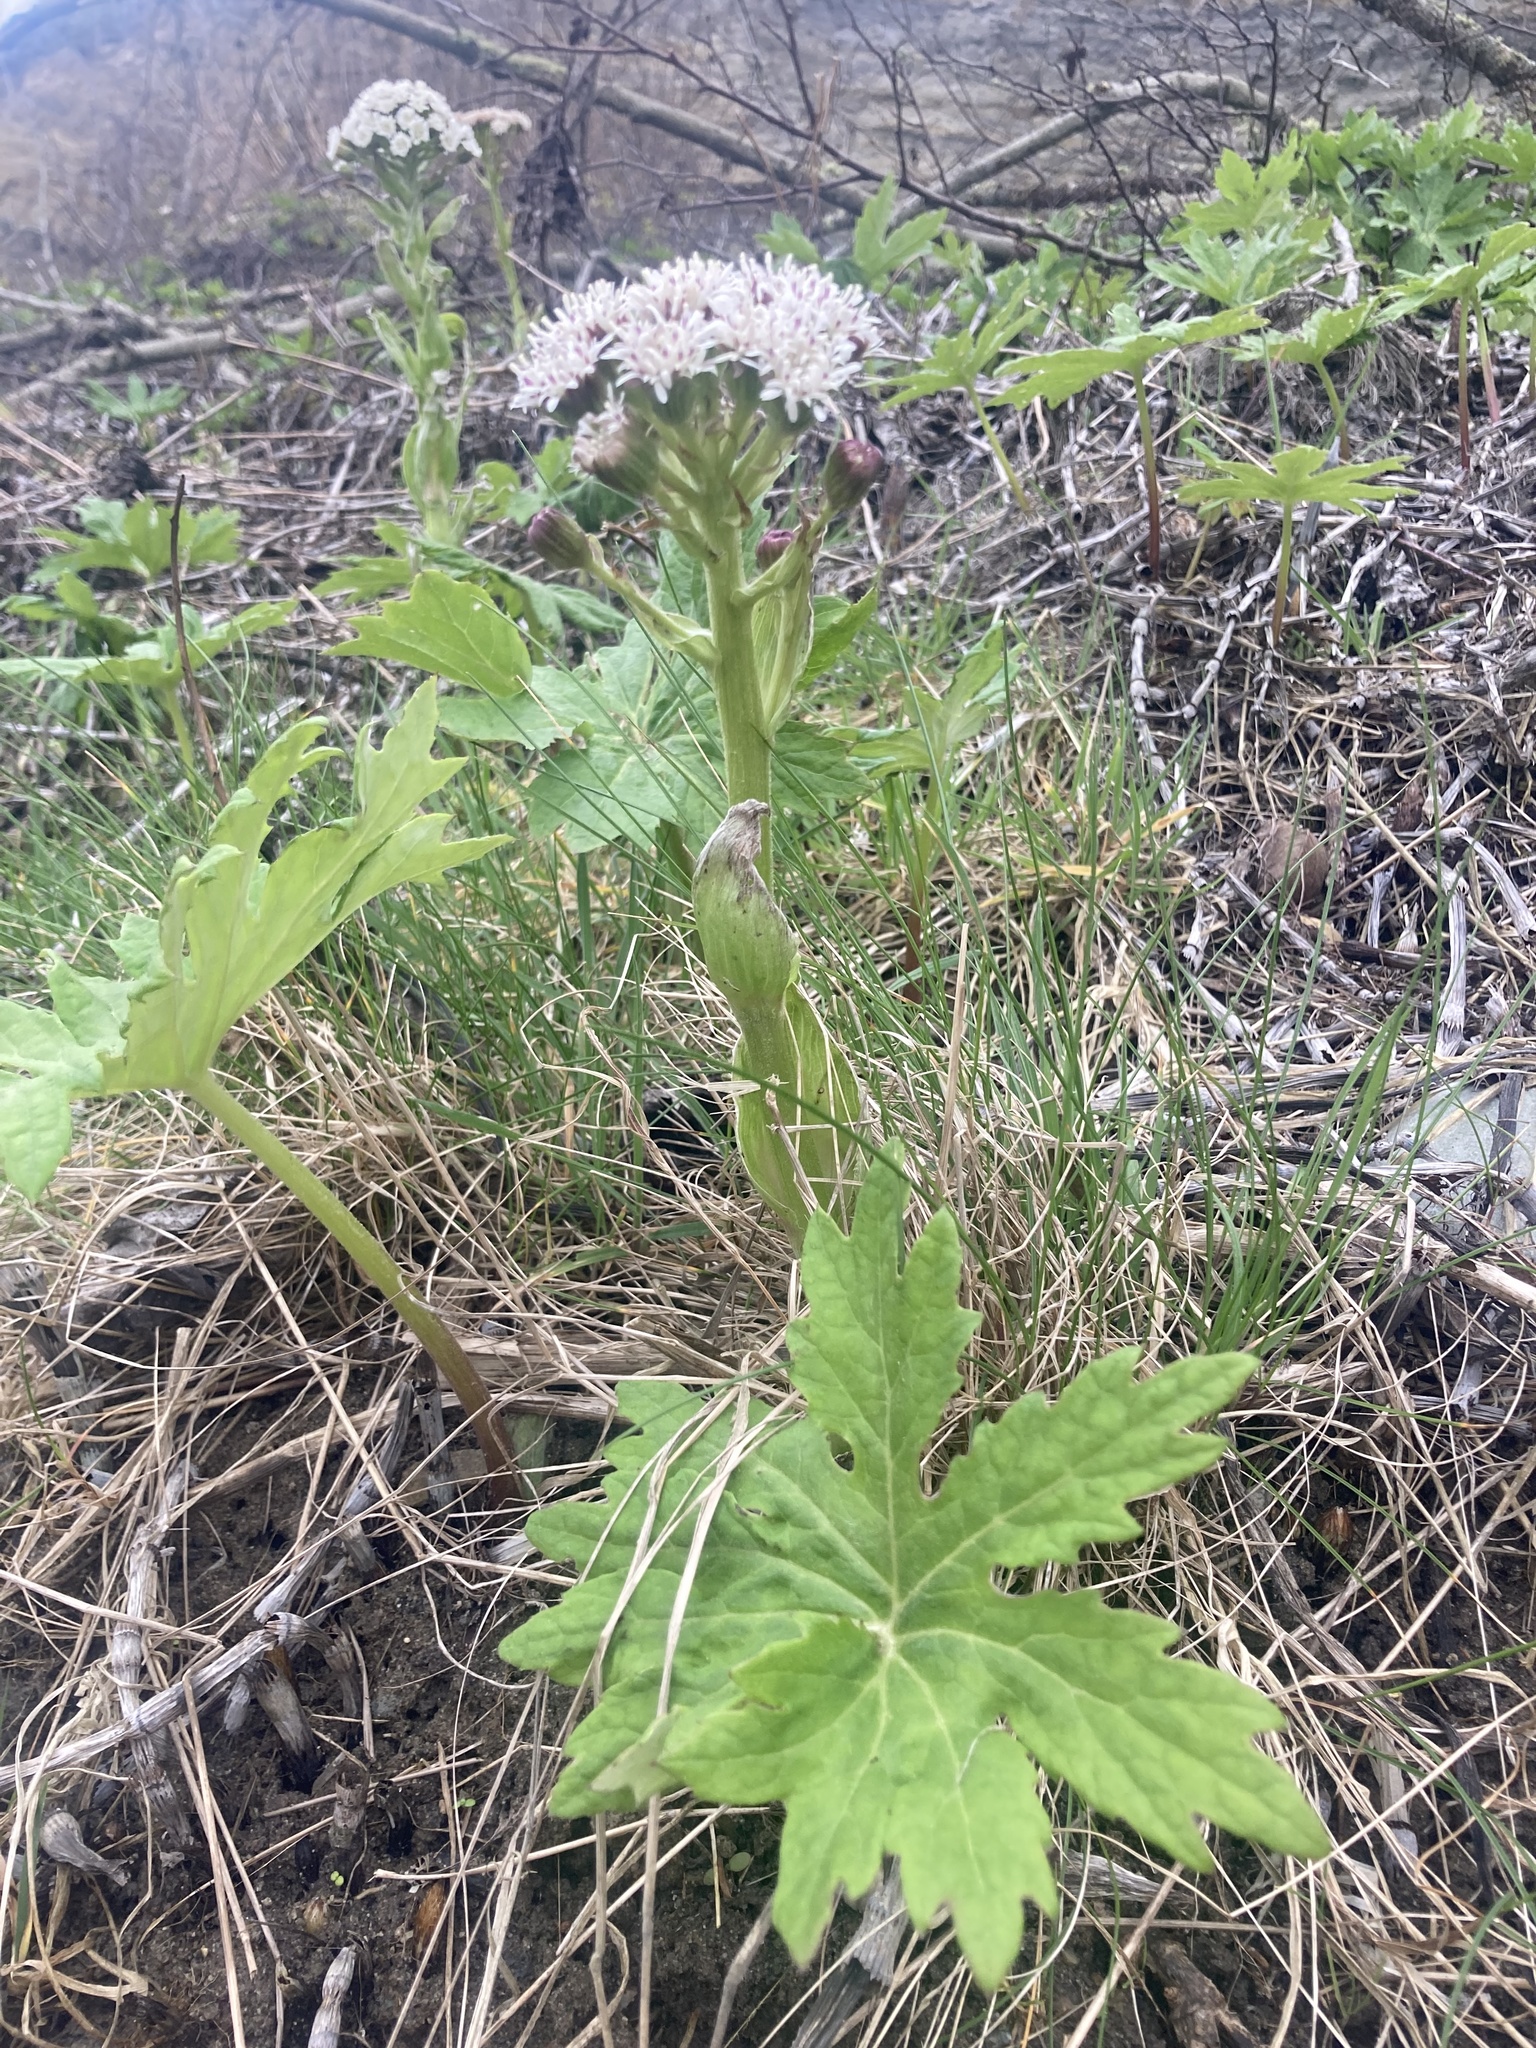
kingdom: Plantae
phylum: Tracheophyta
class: Magnoliopsida
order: Asterales
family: Asteraceae
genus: Petasites
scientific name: Petasites frigidus
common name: Arctic butterbur
